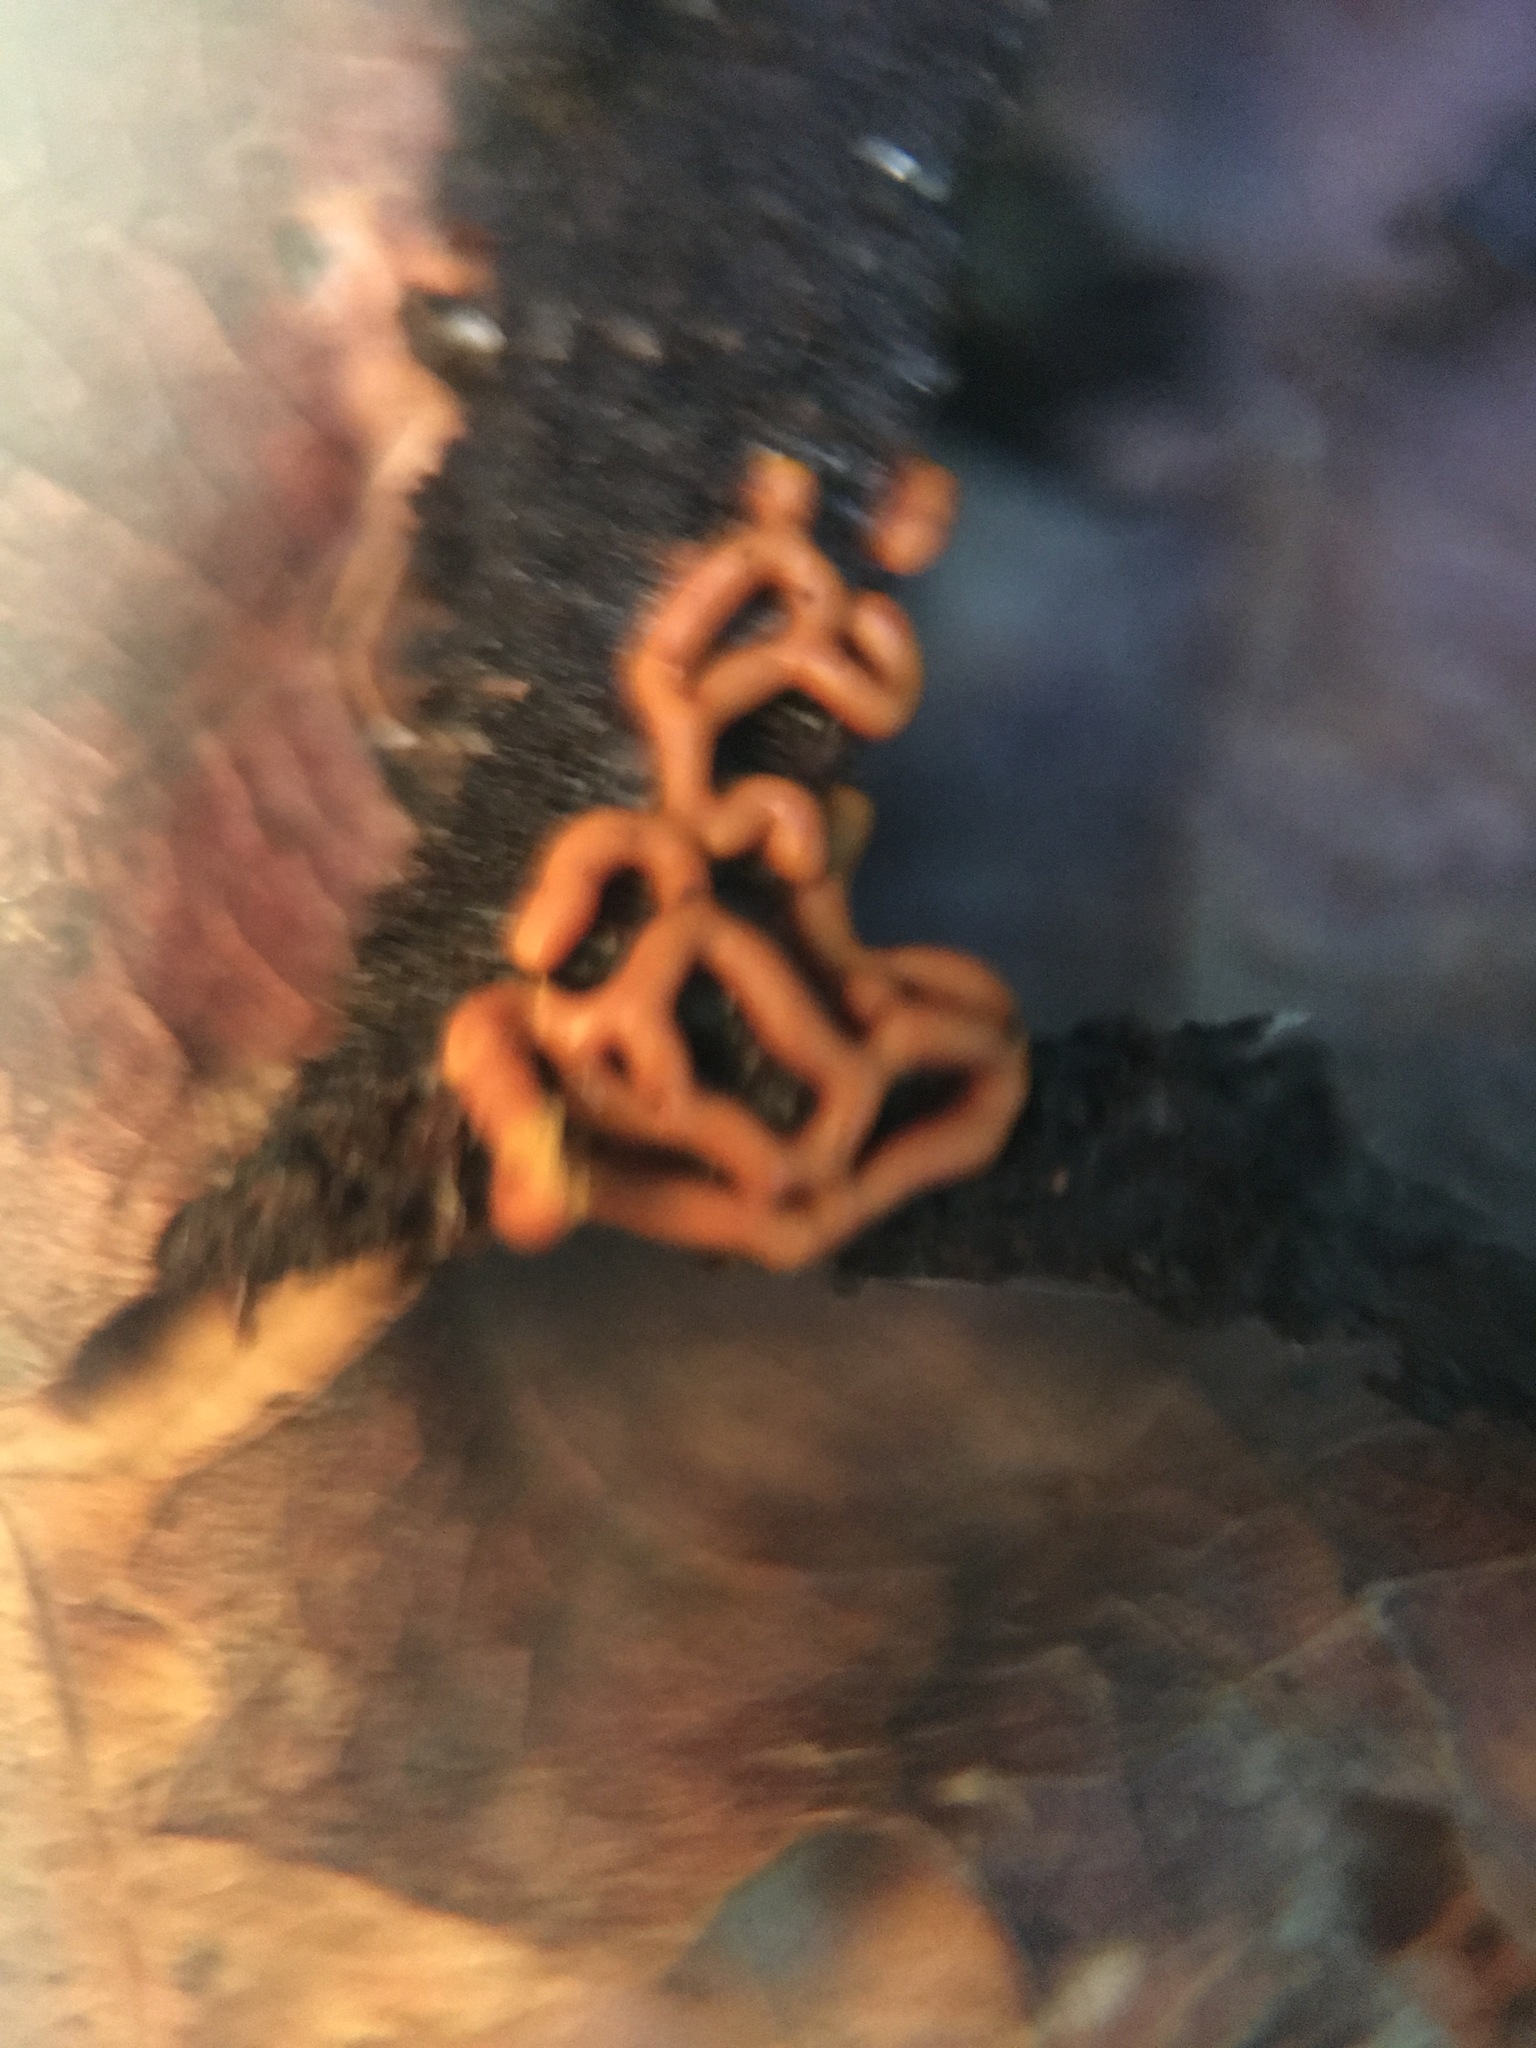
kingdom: Protozoa
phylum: Mycetozoa
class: Myxomycetes
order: Trichiales
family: Arcyriaceae
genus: Hemitrichia
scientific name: Hemitrichia serpula
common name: Pretzel slime mold
